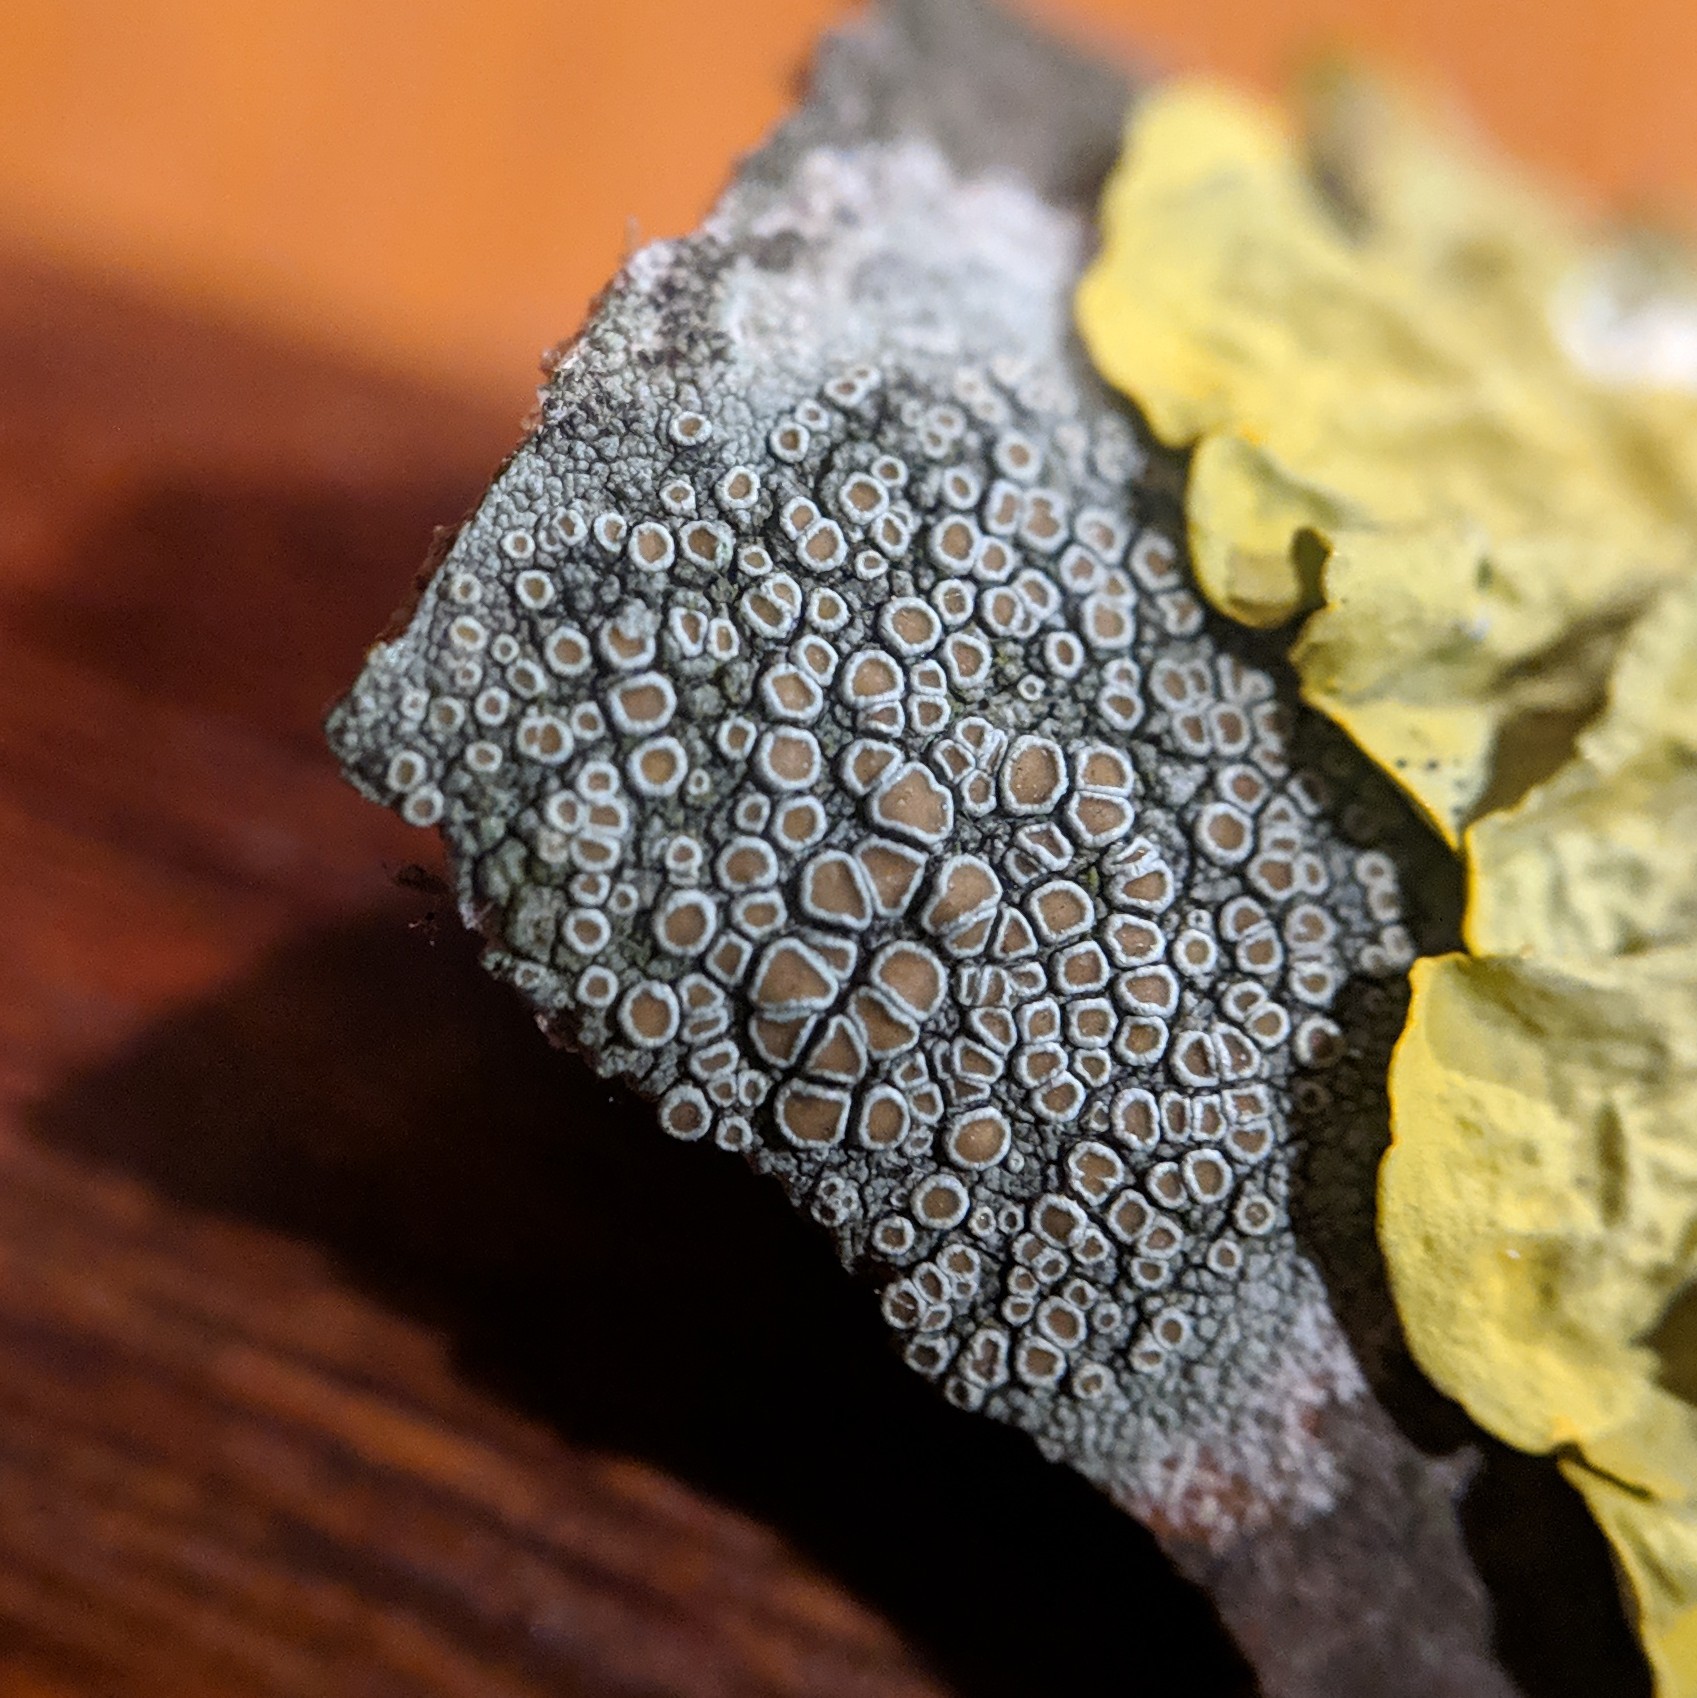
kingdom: Fungi
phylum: Ascomycota
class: Lecanoromycetes
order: Lecanorales
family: Lecanoraceae
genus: Lecanora
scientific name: Lecanora chlarotera
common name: Brown rim-lichen
